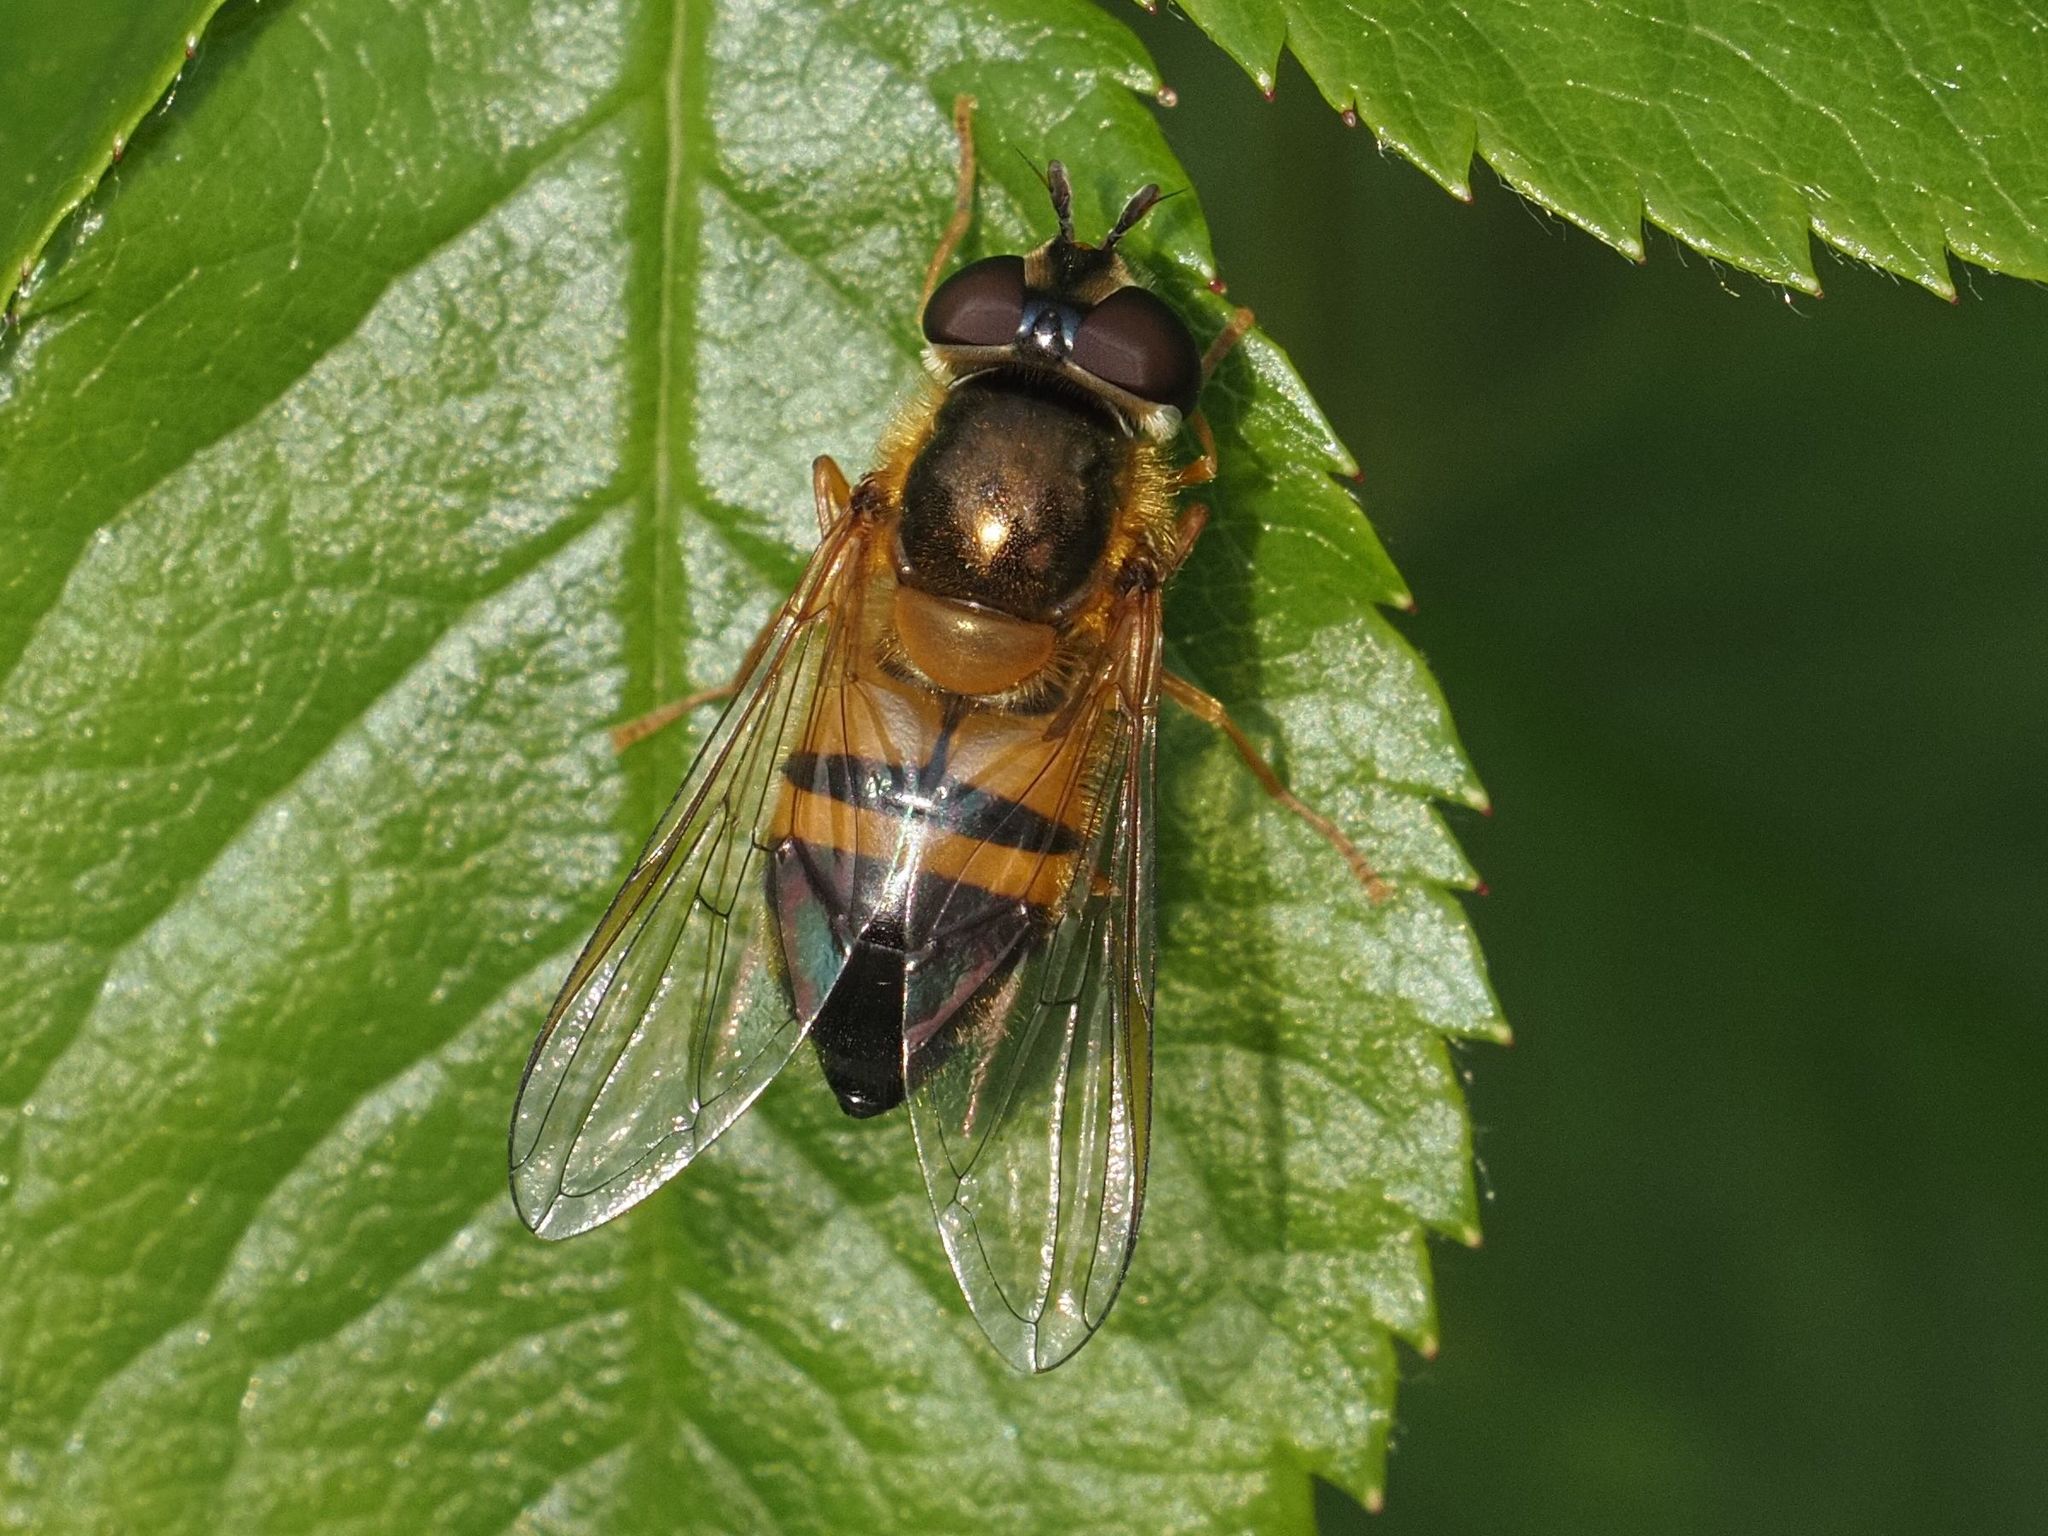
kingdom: Animalia
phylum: Arthropoda
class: Insecta
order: Diptera
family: Syrphidae
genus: Epistrophe
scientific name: Epistrophe eligans
